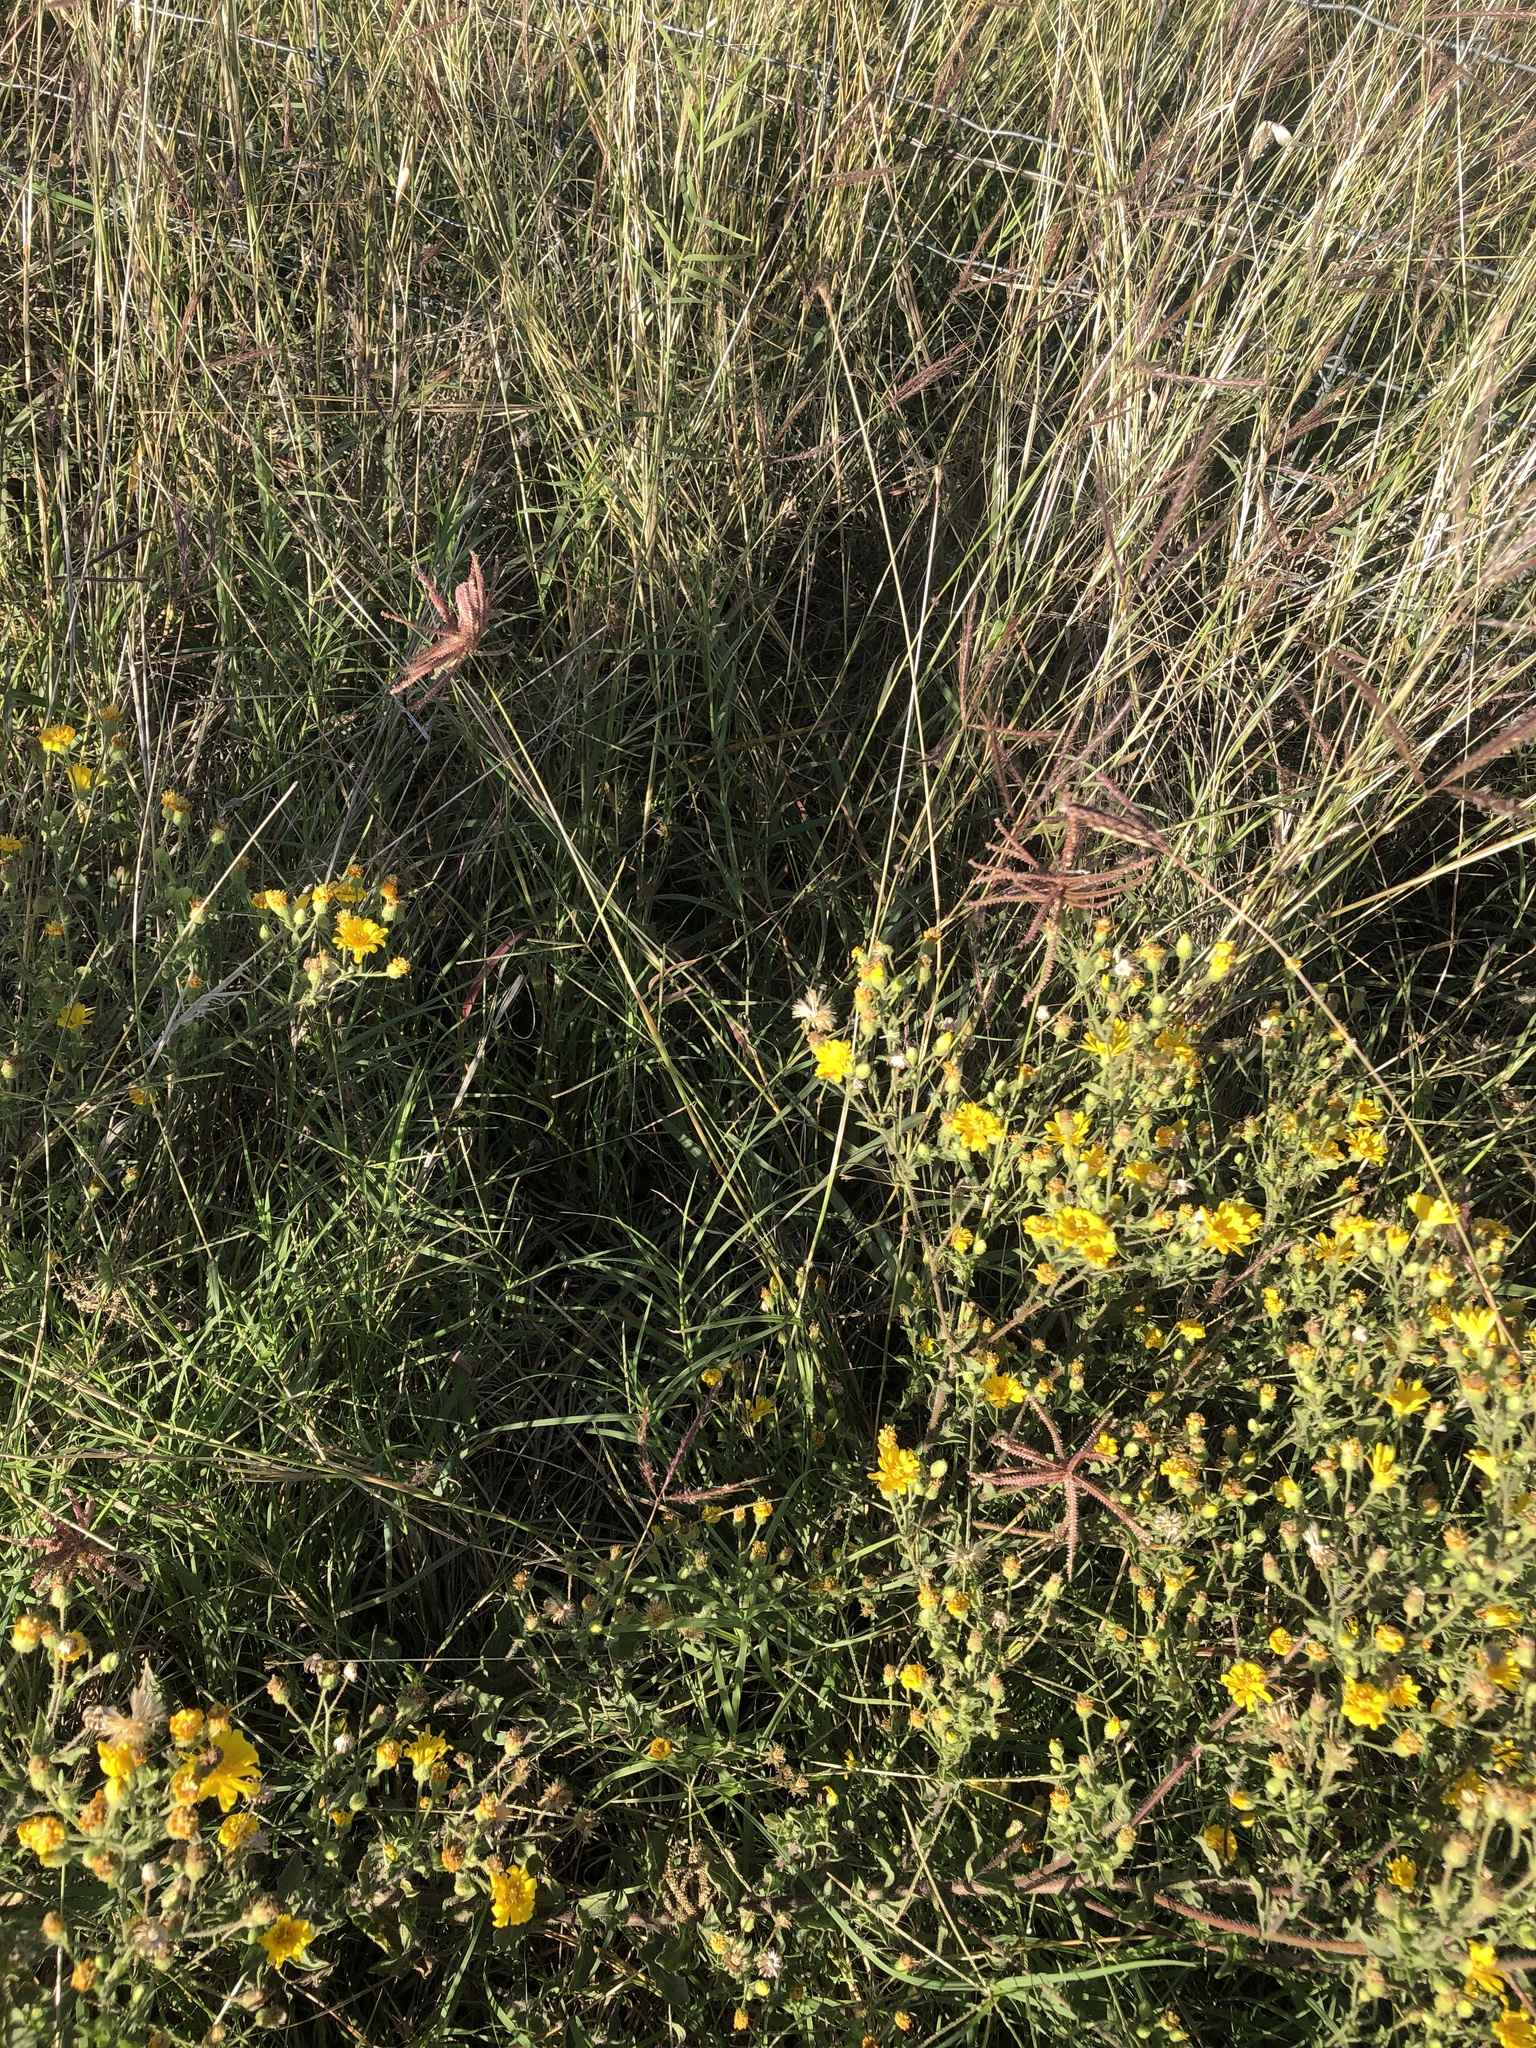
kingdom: Plantae
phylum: Tracheophyta
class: Liliopsida
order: Poales
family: Poaceae
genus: Chloris
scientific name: Chloris cucullata
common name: Hooded windmill grass
